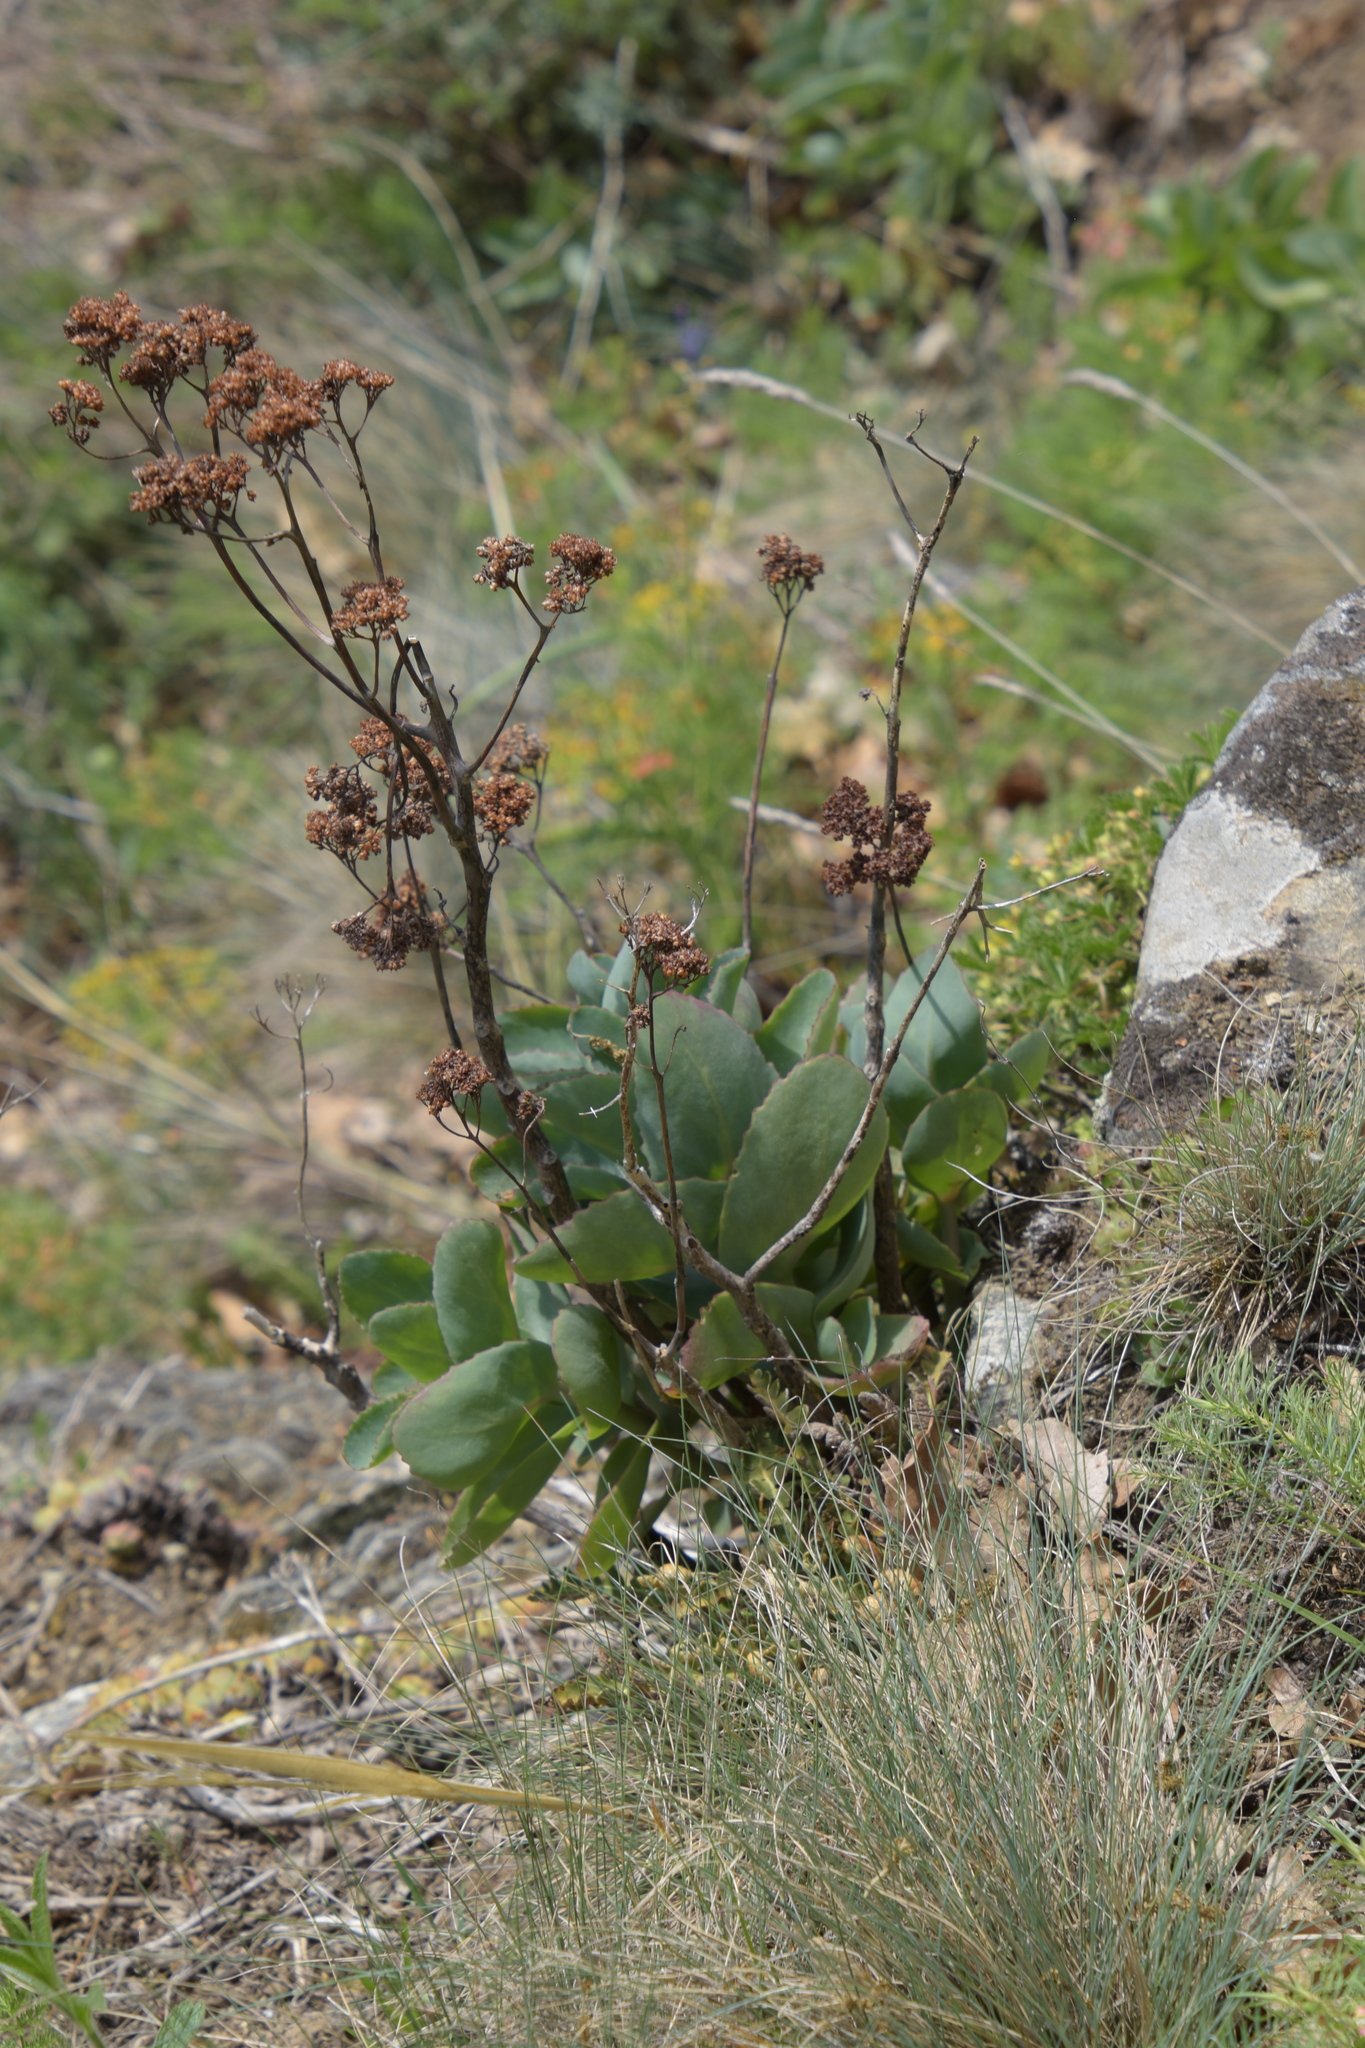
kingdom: Plantae
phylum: Tracheophyta
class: Magnoliopsida
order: Saxifragales
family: Crassulaceae
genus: Hylotelephium
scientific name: Hylotelephium maximum
